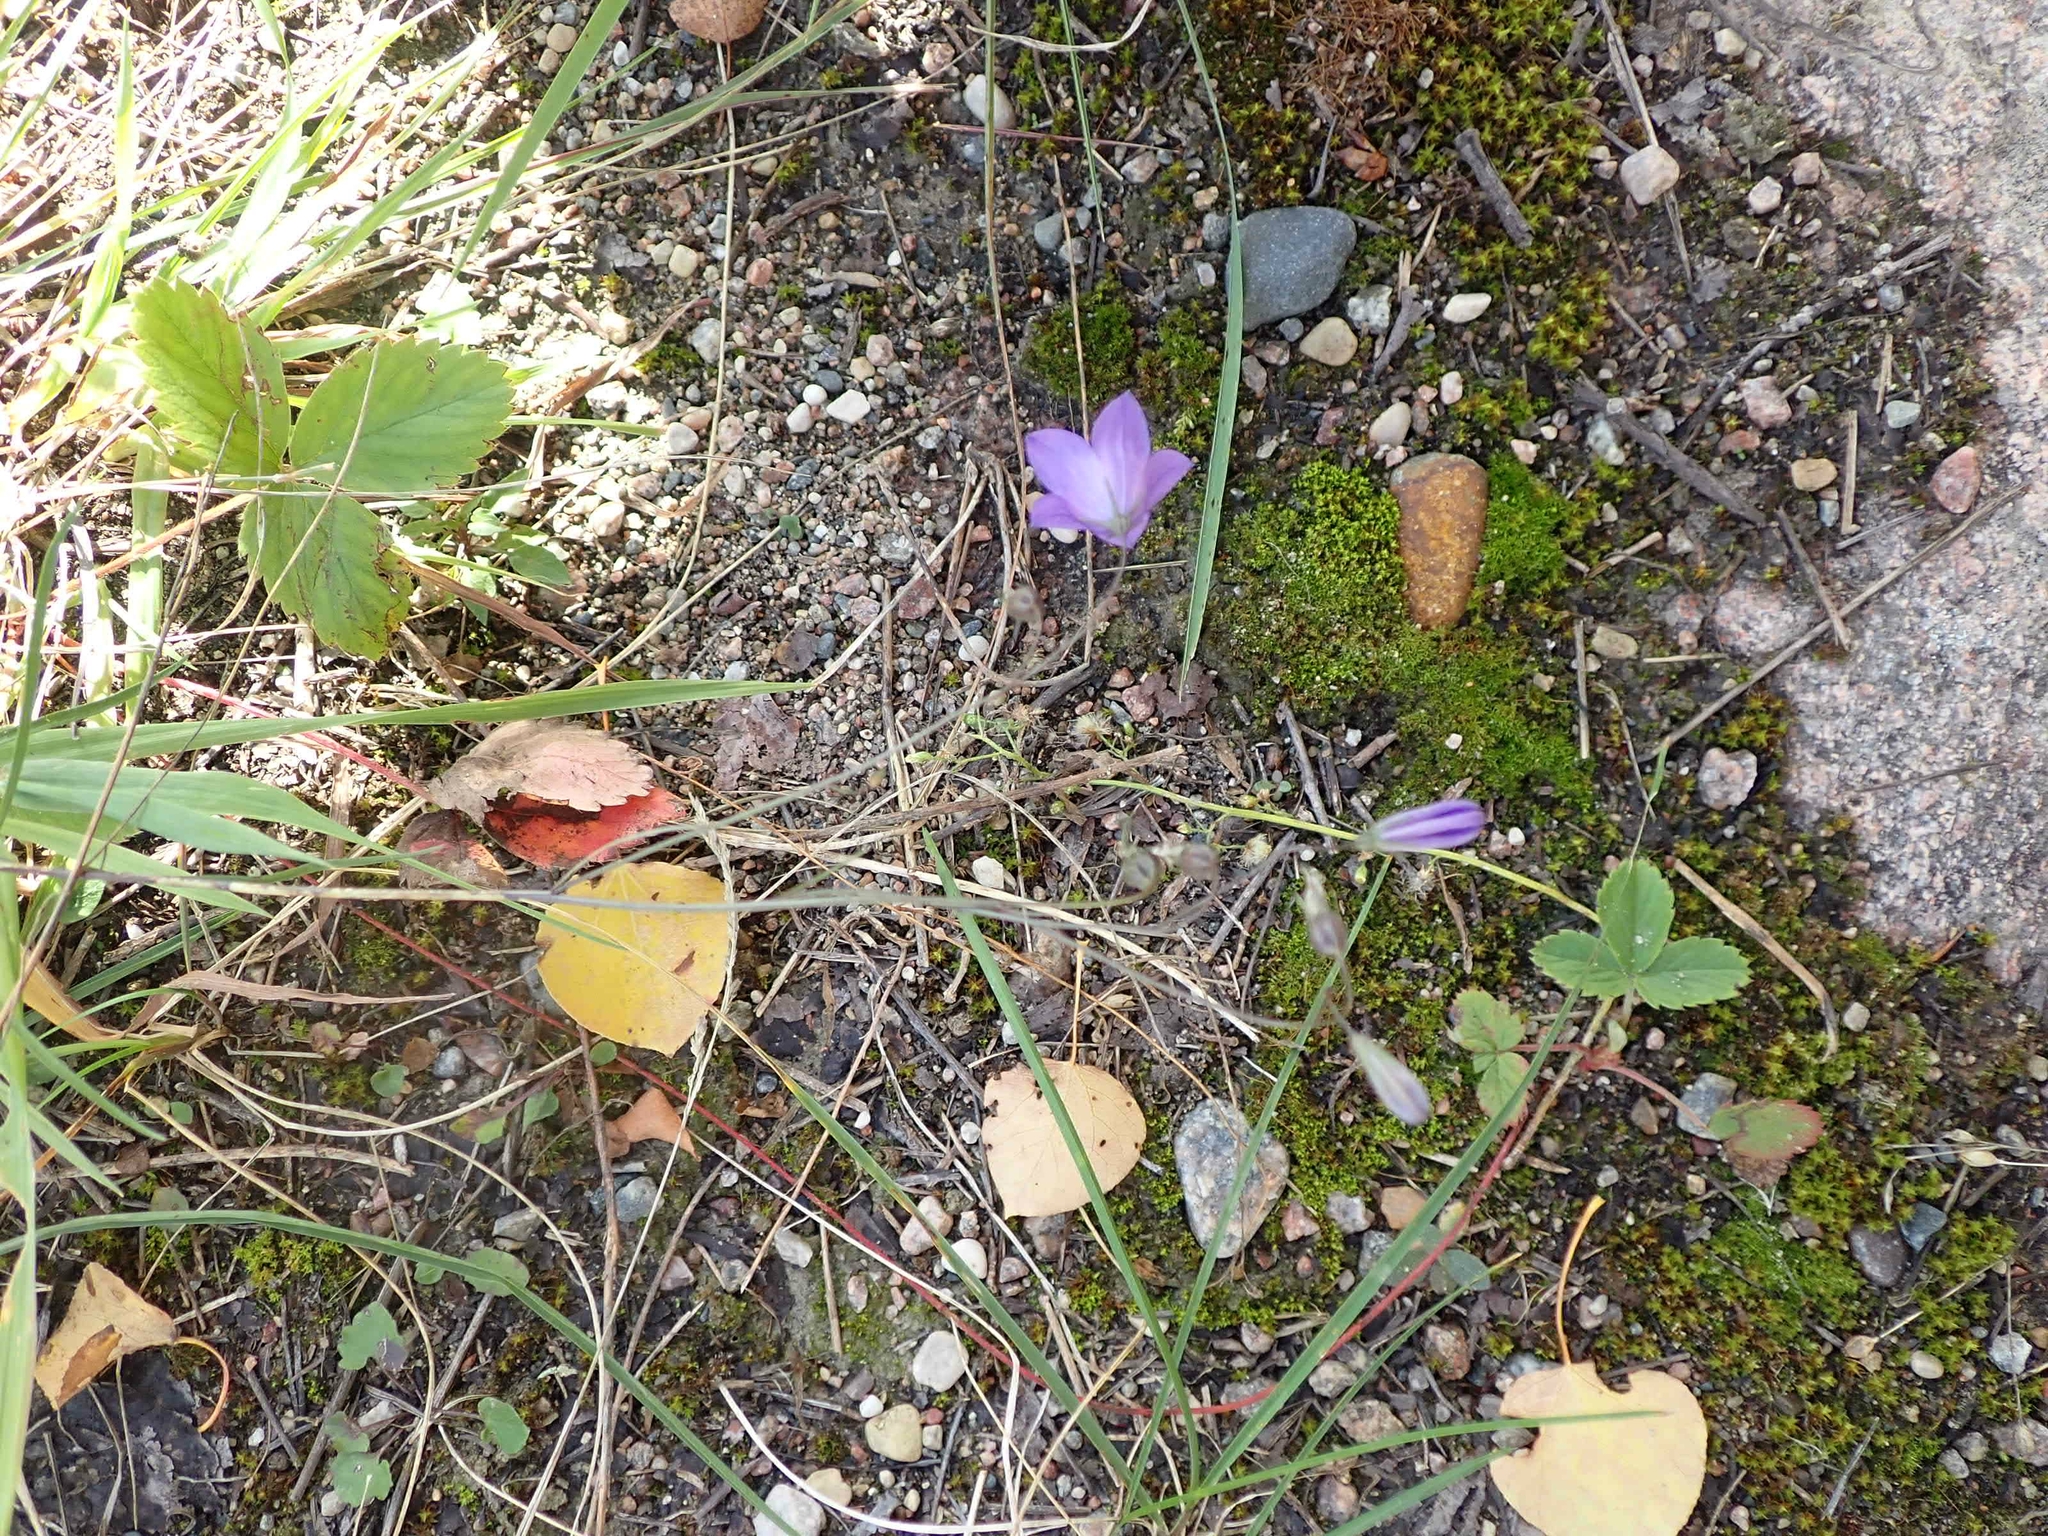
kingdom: Plantae
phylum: Tracheophyta
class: Magnoliopsida
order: Asterales
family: Campanulaceae
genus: Campanula
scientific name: Campanula petiolata
